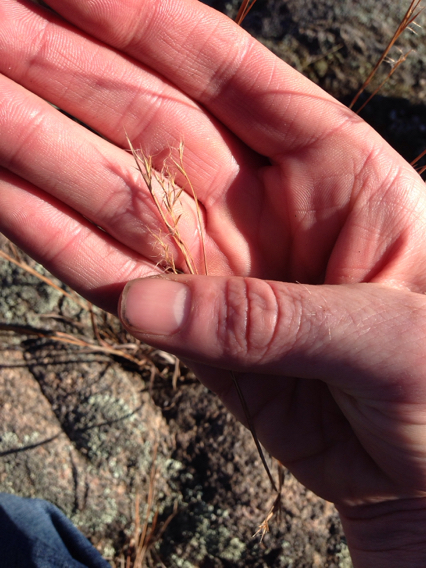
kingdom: Plantae
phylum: Tracheophyta
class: Liliopsida
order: Poales
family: Poaceae
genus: Andropogon
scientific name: Andropogon virginicus
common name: Broomsedge bluestem
